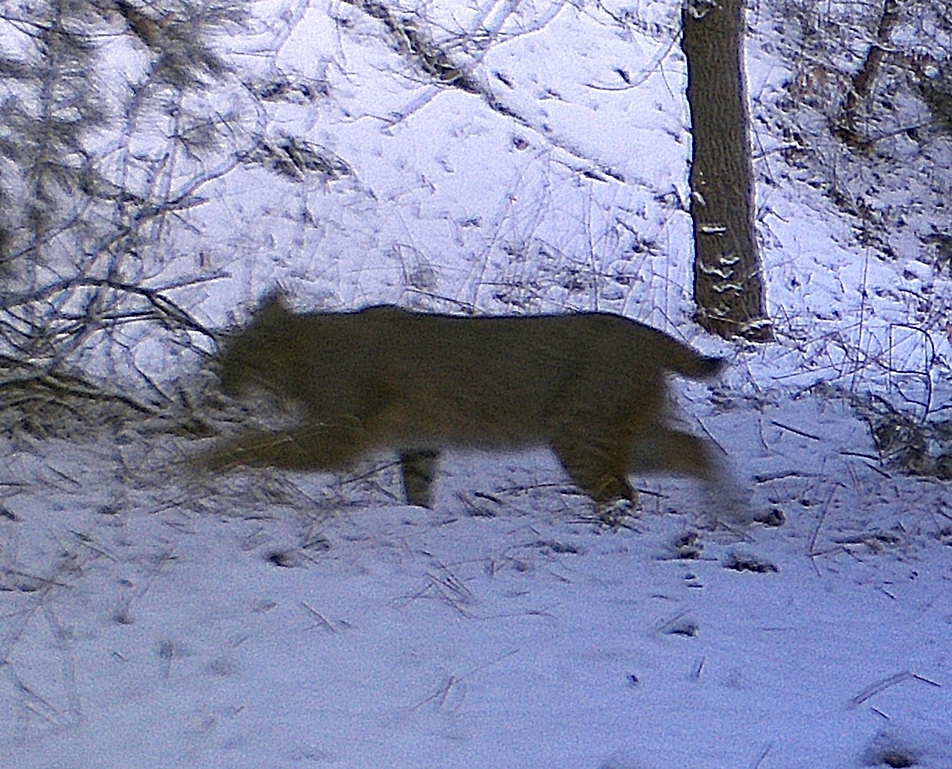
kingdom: Animalia
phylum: Chordata
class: Mammalia
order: Carnivora
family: Felidae
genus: Lynx
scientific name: Lynx rufus
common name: Bobcat
